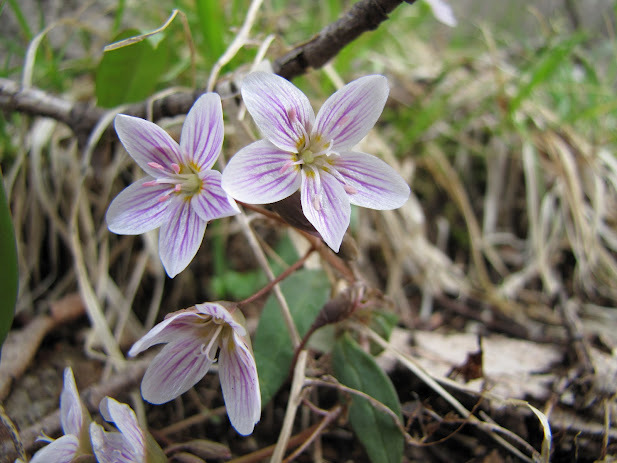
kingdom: Plantae
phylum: Tracheophyta
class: Magnoliopsida
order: Caryophyllales
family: Montiaceae
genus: Claytonia
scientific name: Claytonia caroliniana
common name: Carolina spring beauty
